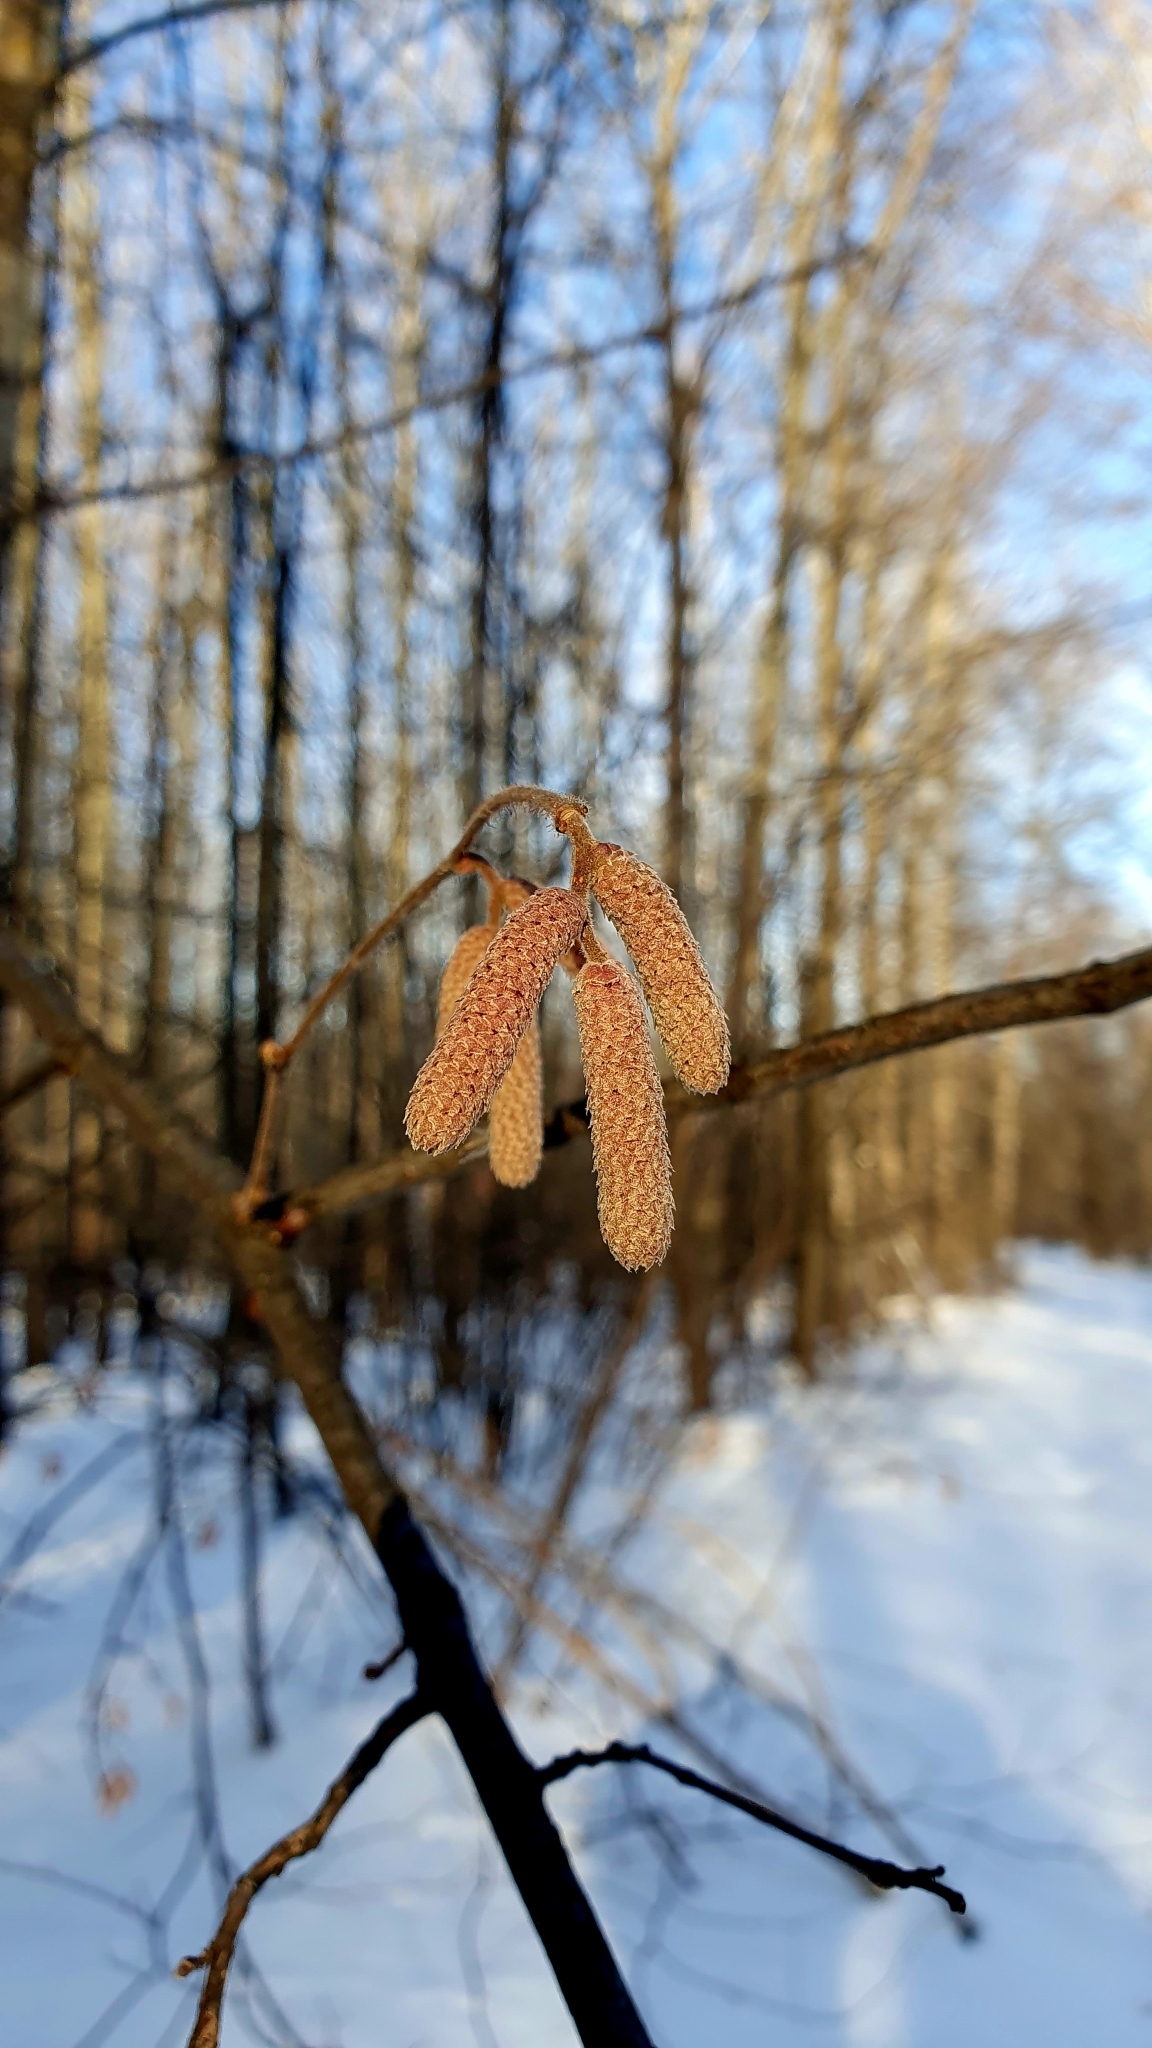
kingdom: Plantae
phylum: Tracheophyta
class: Magnoliopsida
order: Fagales
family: Betulaceae
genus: Corylus
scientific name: Corylus avellana
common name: European hazel
